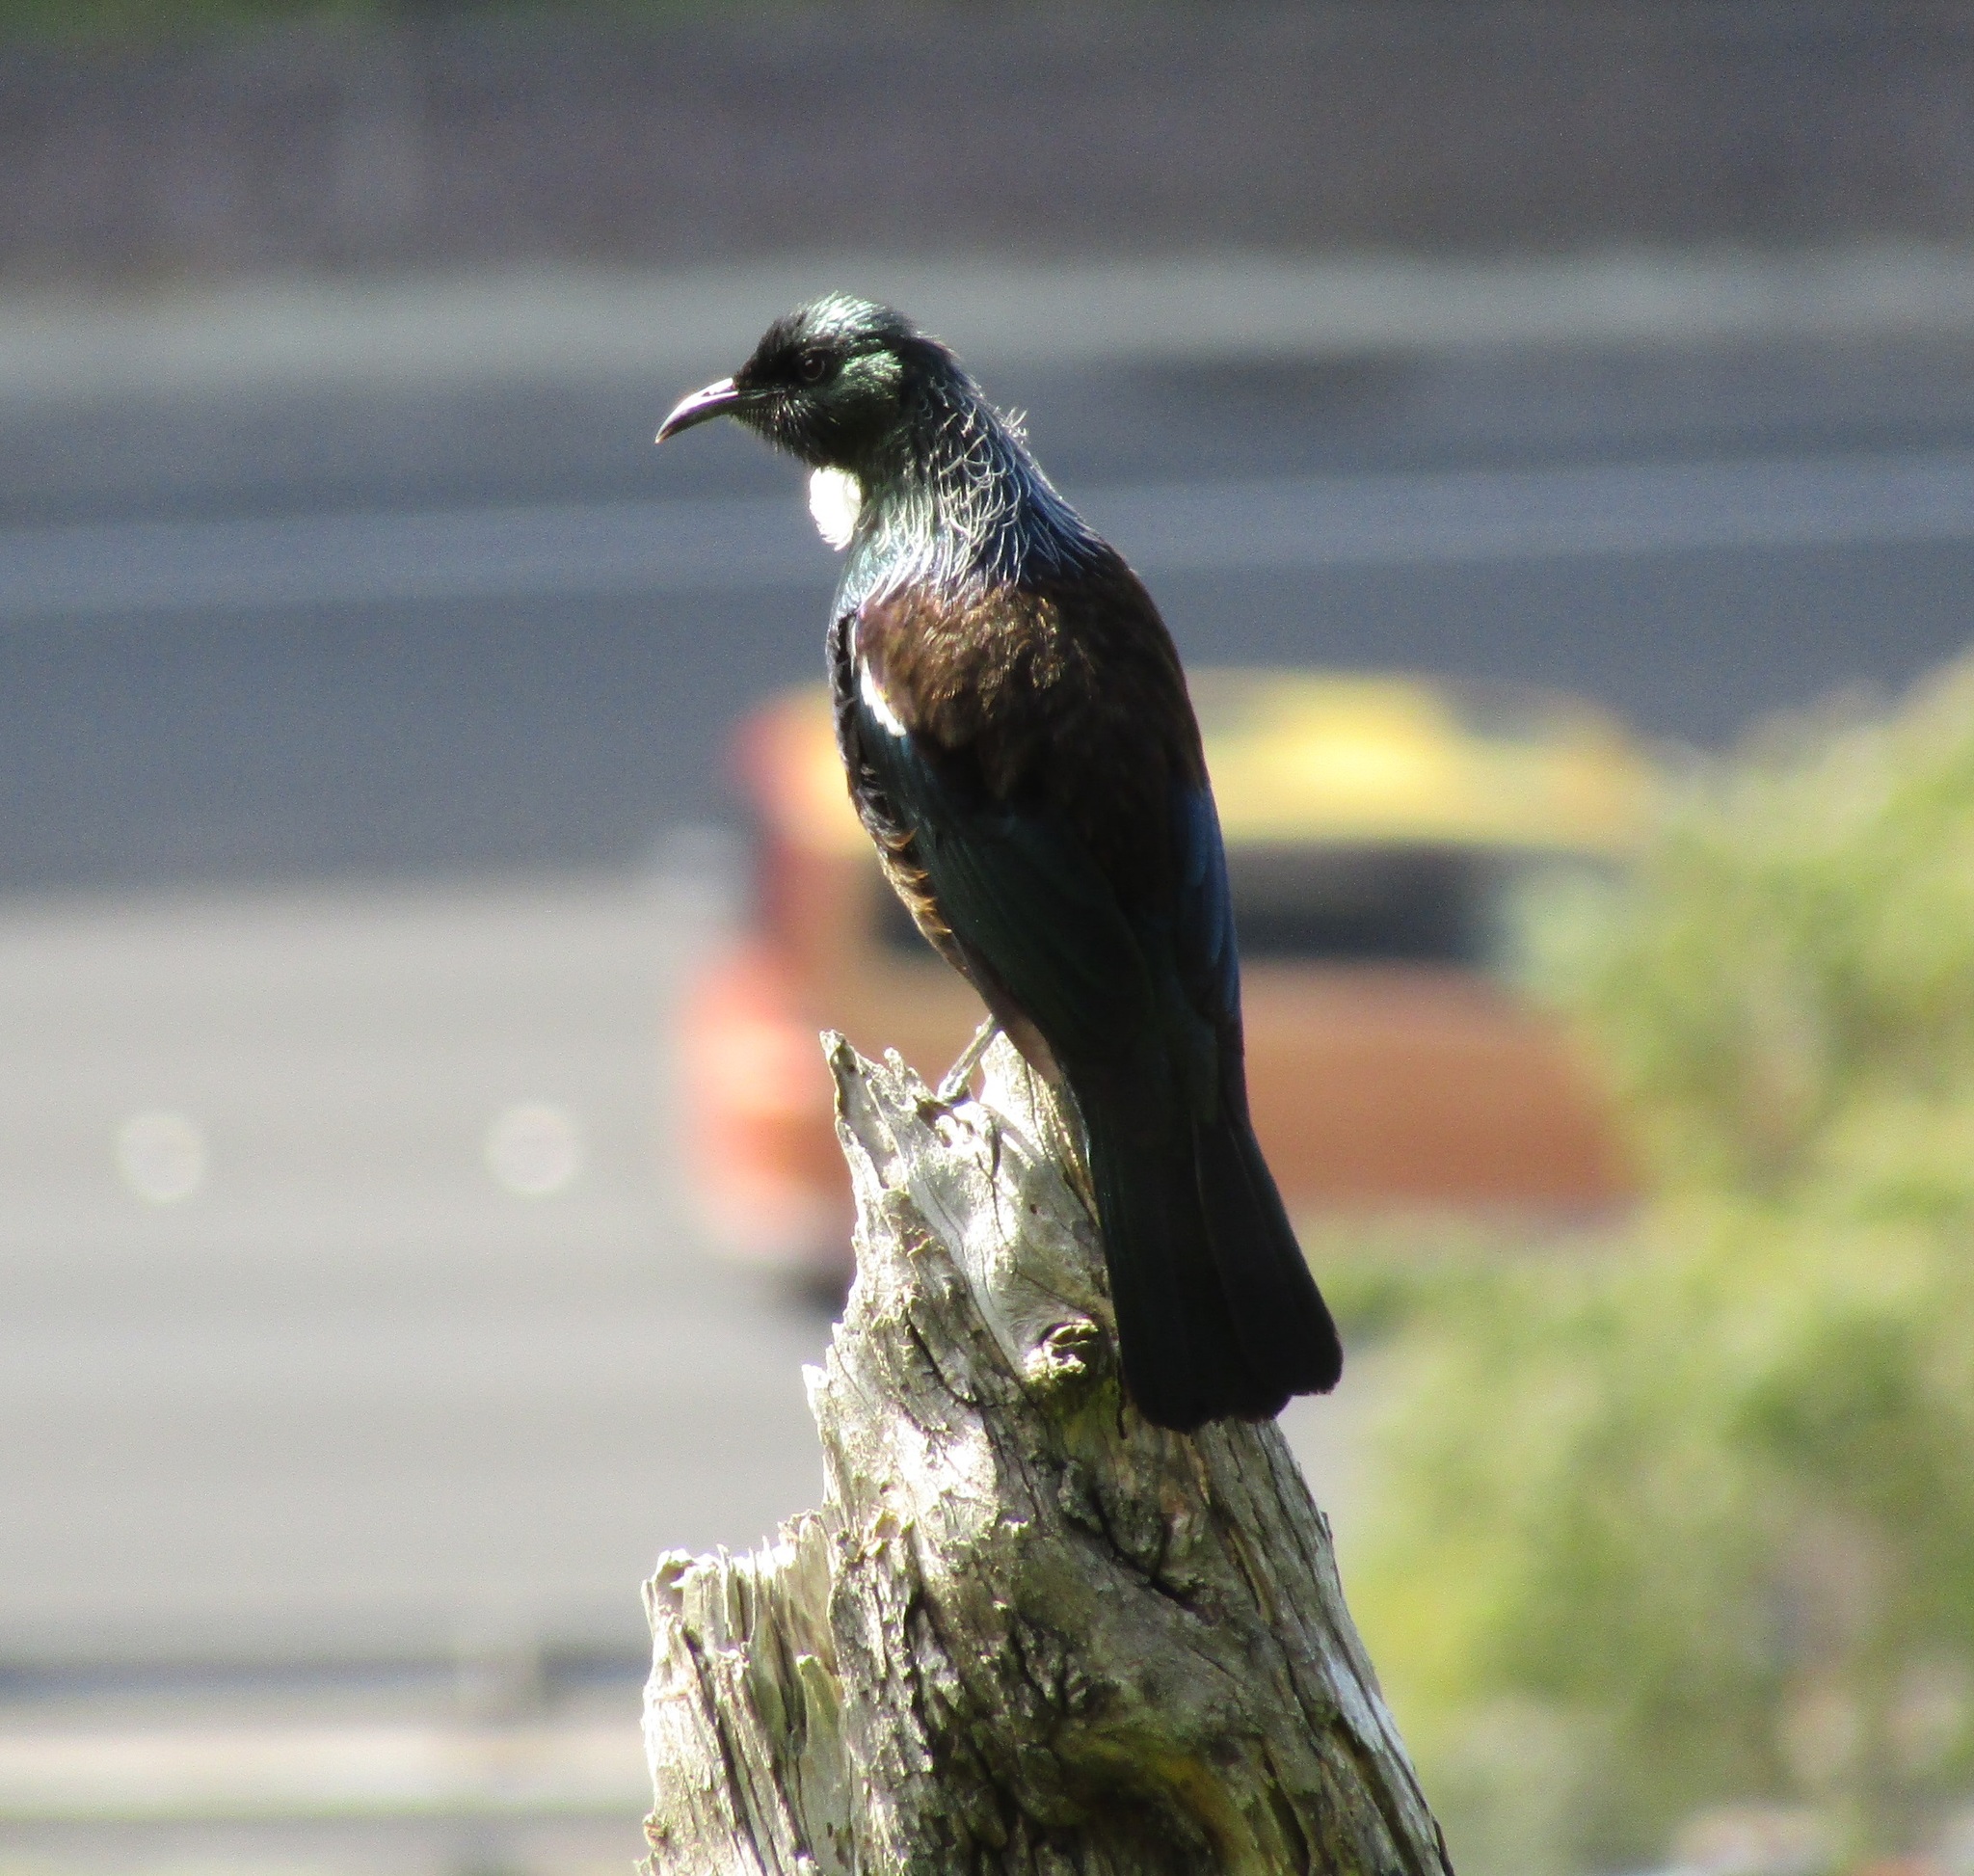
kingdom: Animalia
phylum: Chordata
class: Aves
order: Passeriformes
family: Meliphagidae
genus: Prosthemadera
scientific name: Prosthemadera novaeseelandiae
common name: Tui
